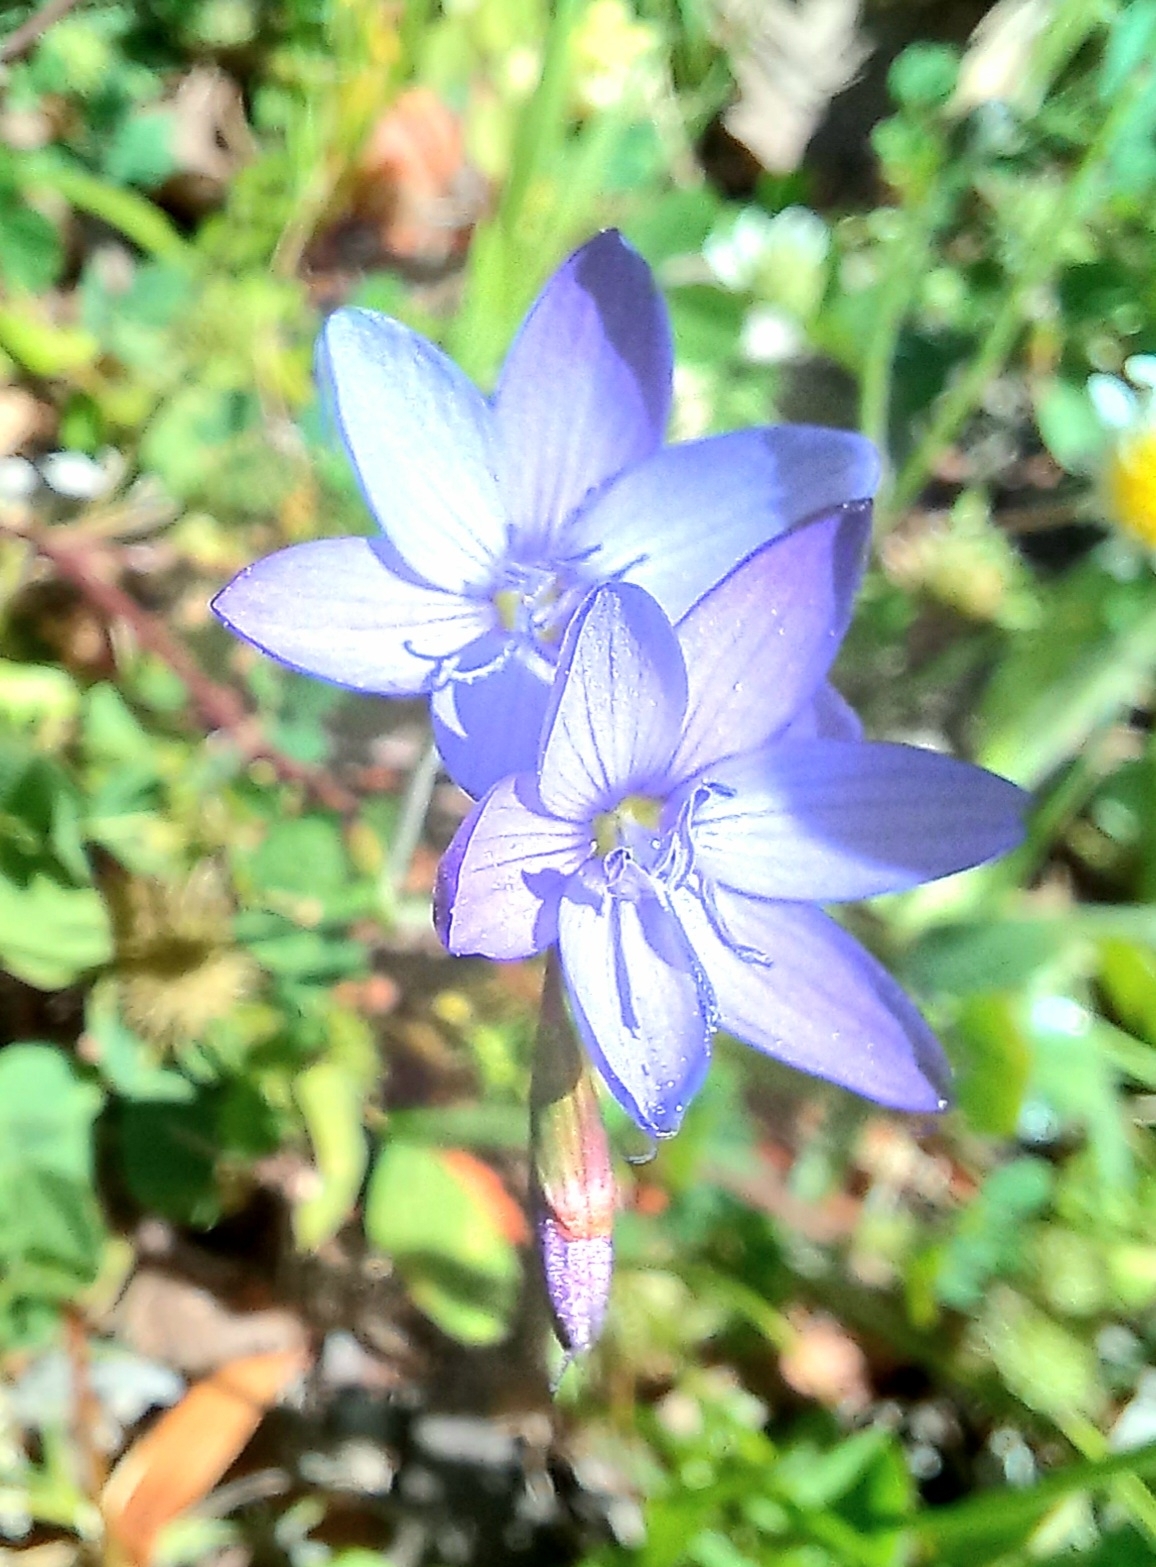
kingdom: Plantae
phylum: Tracheophyta
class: Liliopsida
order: Asparagales
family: Iridaceae
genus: Geissorhiza
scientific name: Geissorhiza aspera
